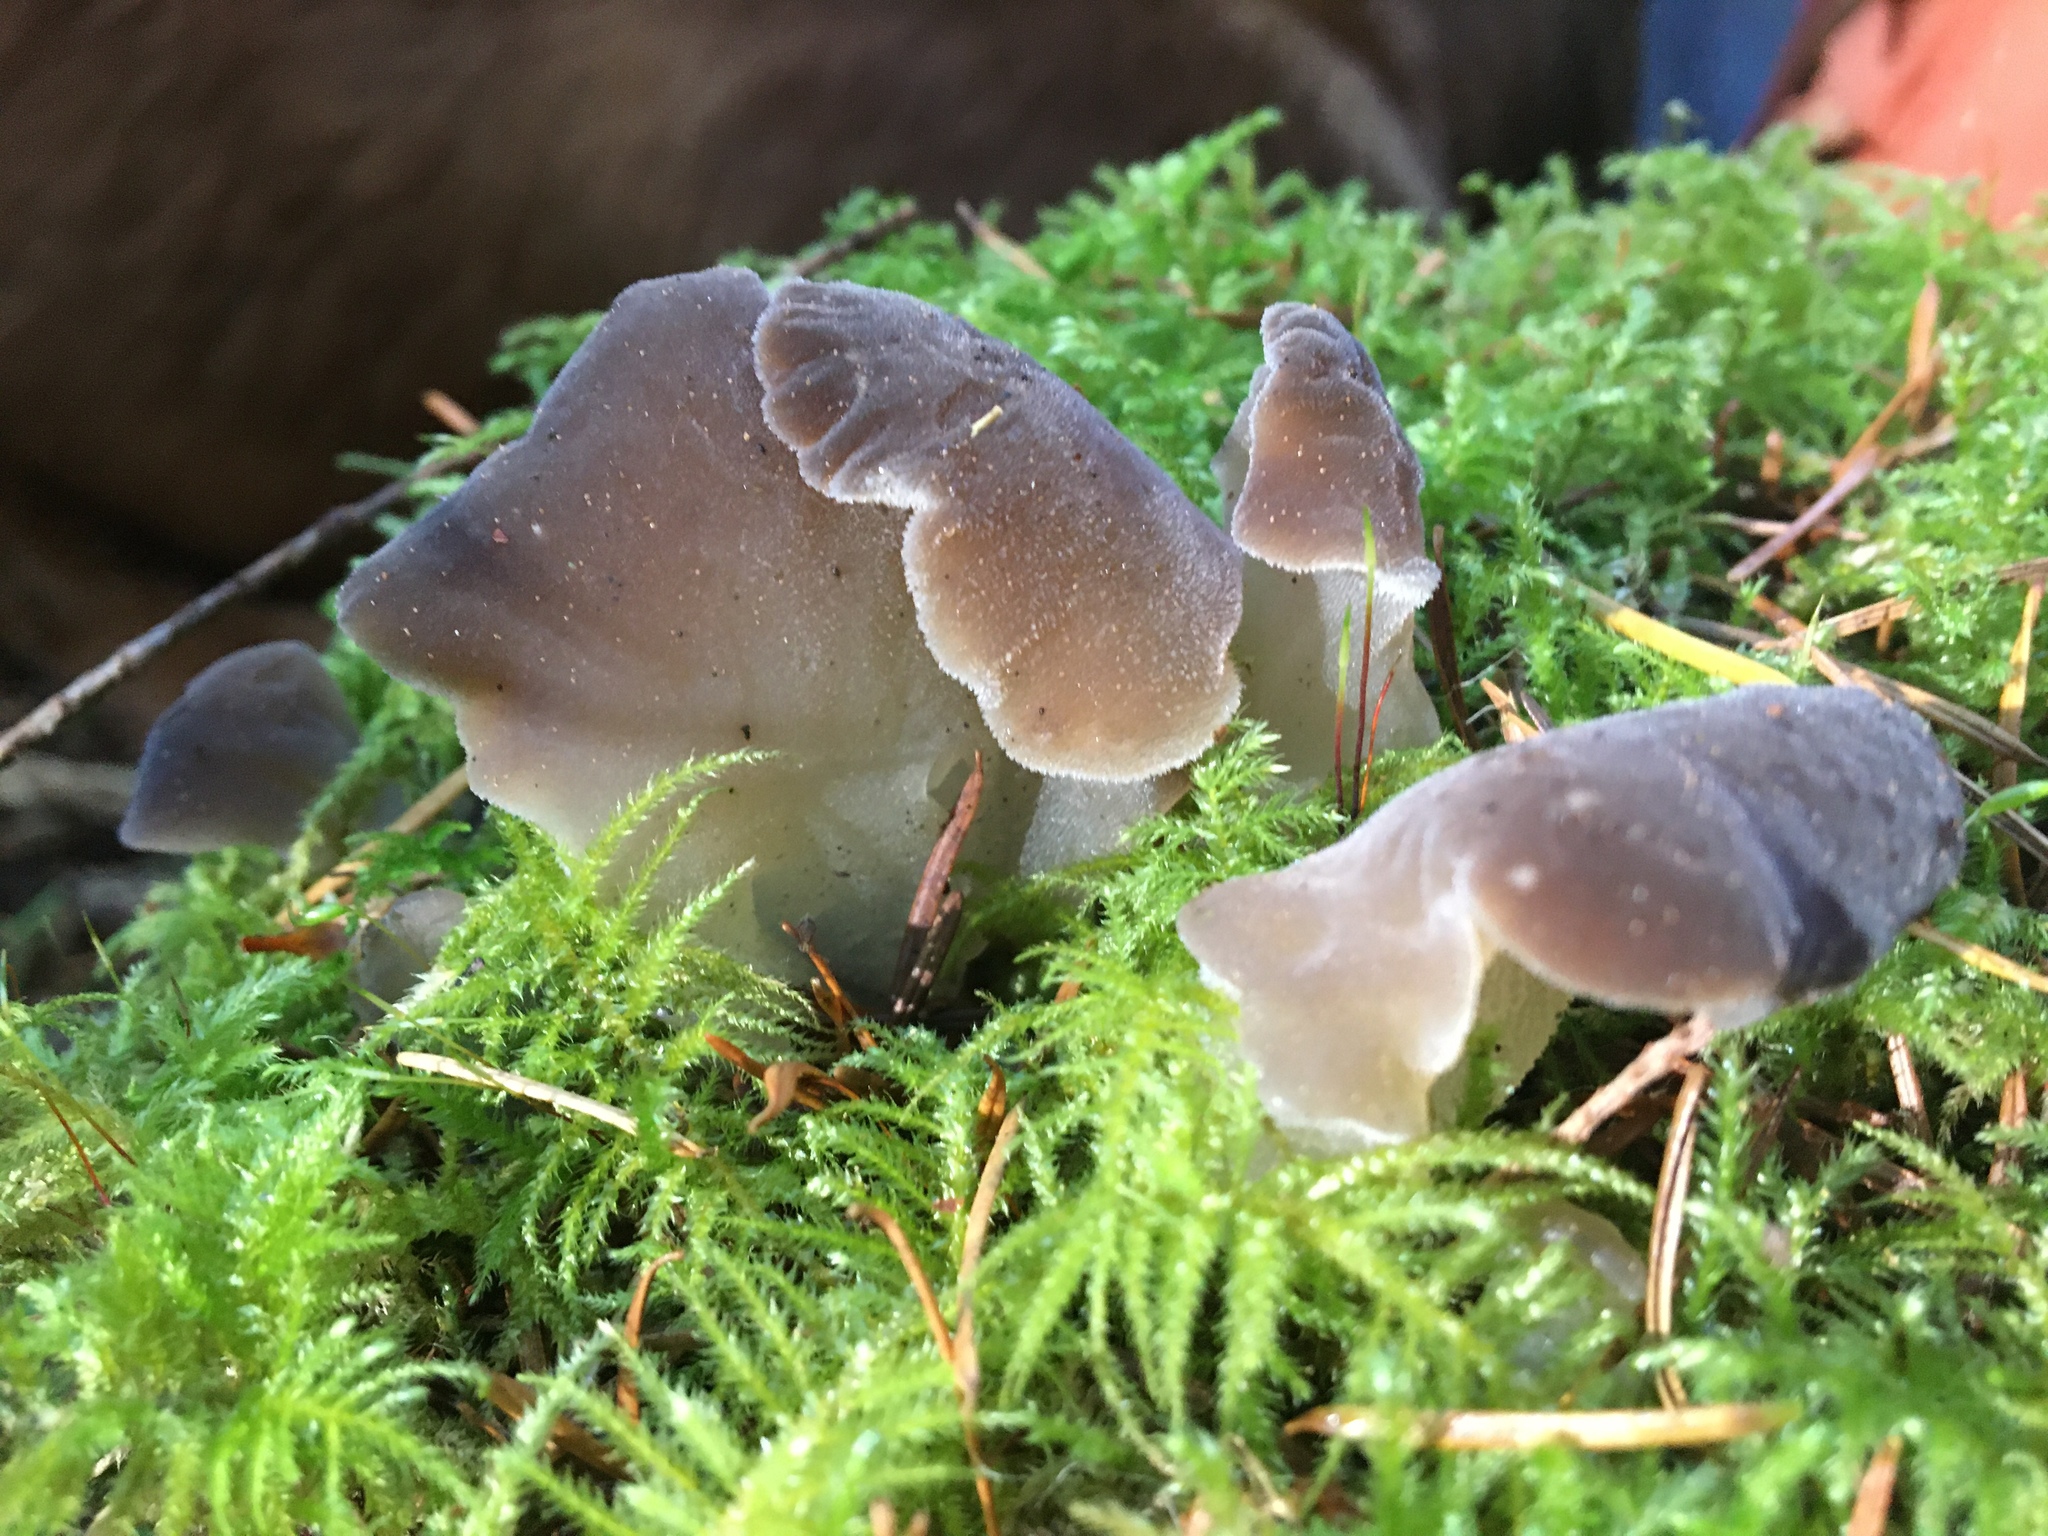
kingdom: Fungi
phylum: Basidiomycota
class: Agaricomycetes
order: Auriculariales
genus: Pseudohydnum
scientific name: Pseudohydnum gelatinosum
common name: Jelly tongue
